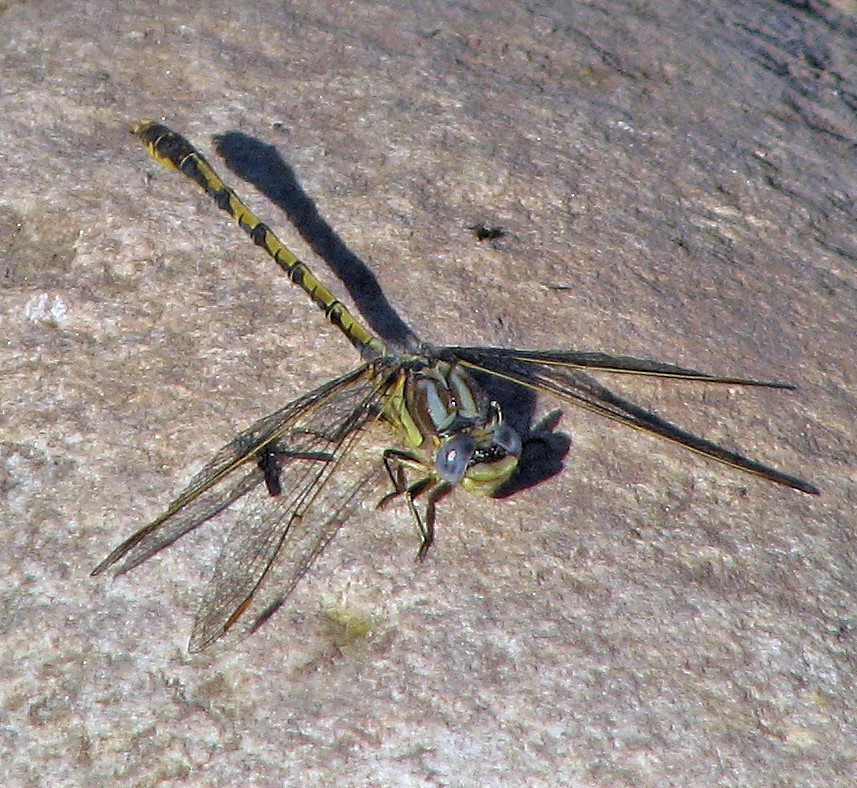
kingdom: Animalia
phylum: Arthropoda
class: Insecta
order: Odonata
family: Gomphidae
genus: Progomphus
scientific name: Progomphus joergenseni
